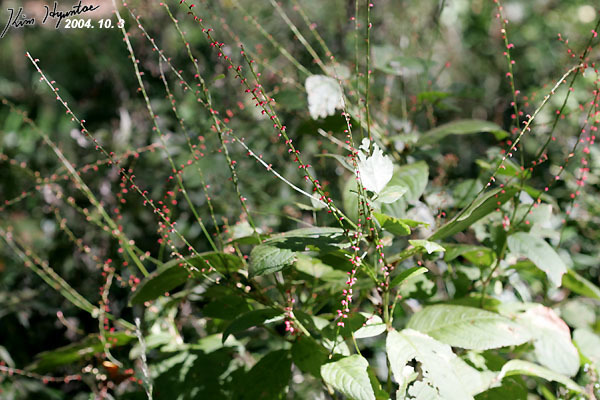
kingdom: Plantae
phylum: Tracheophyta
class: Magnoliopsida
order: Caryophyllales
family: Polygonaceae
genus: Persicaria
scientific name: Persicaria filiformis
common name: Asian jumpseed
